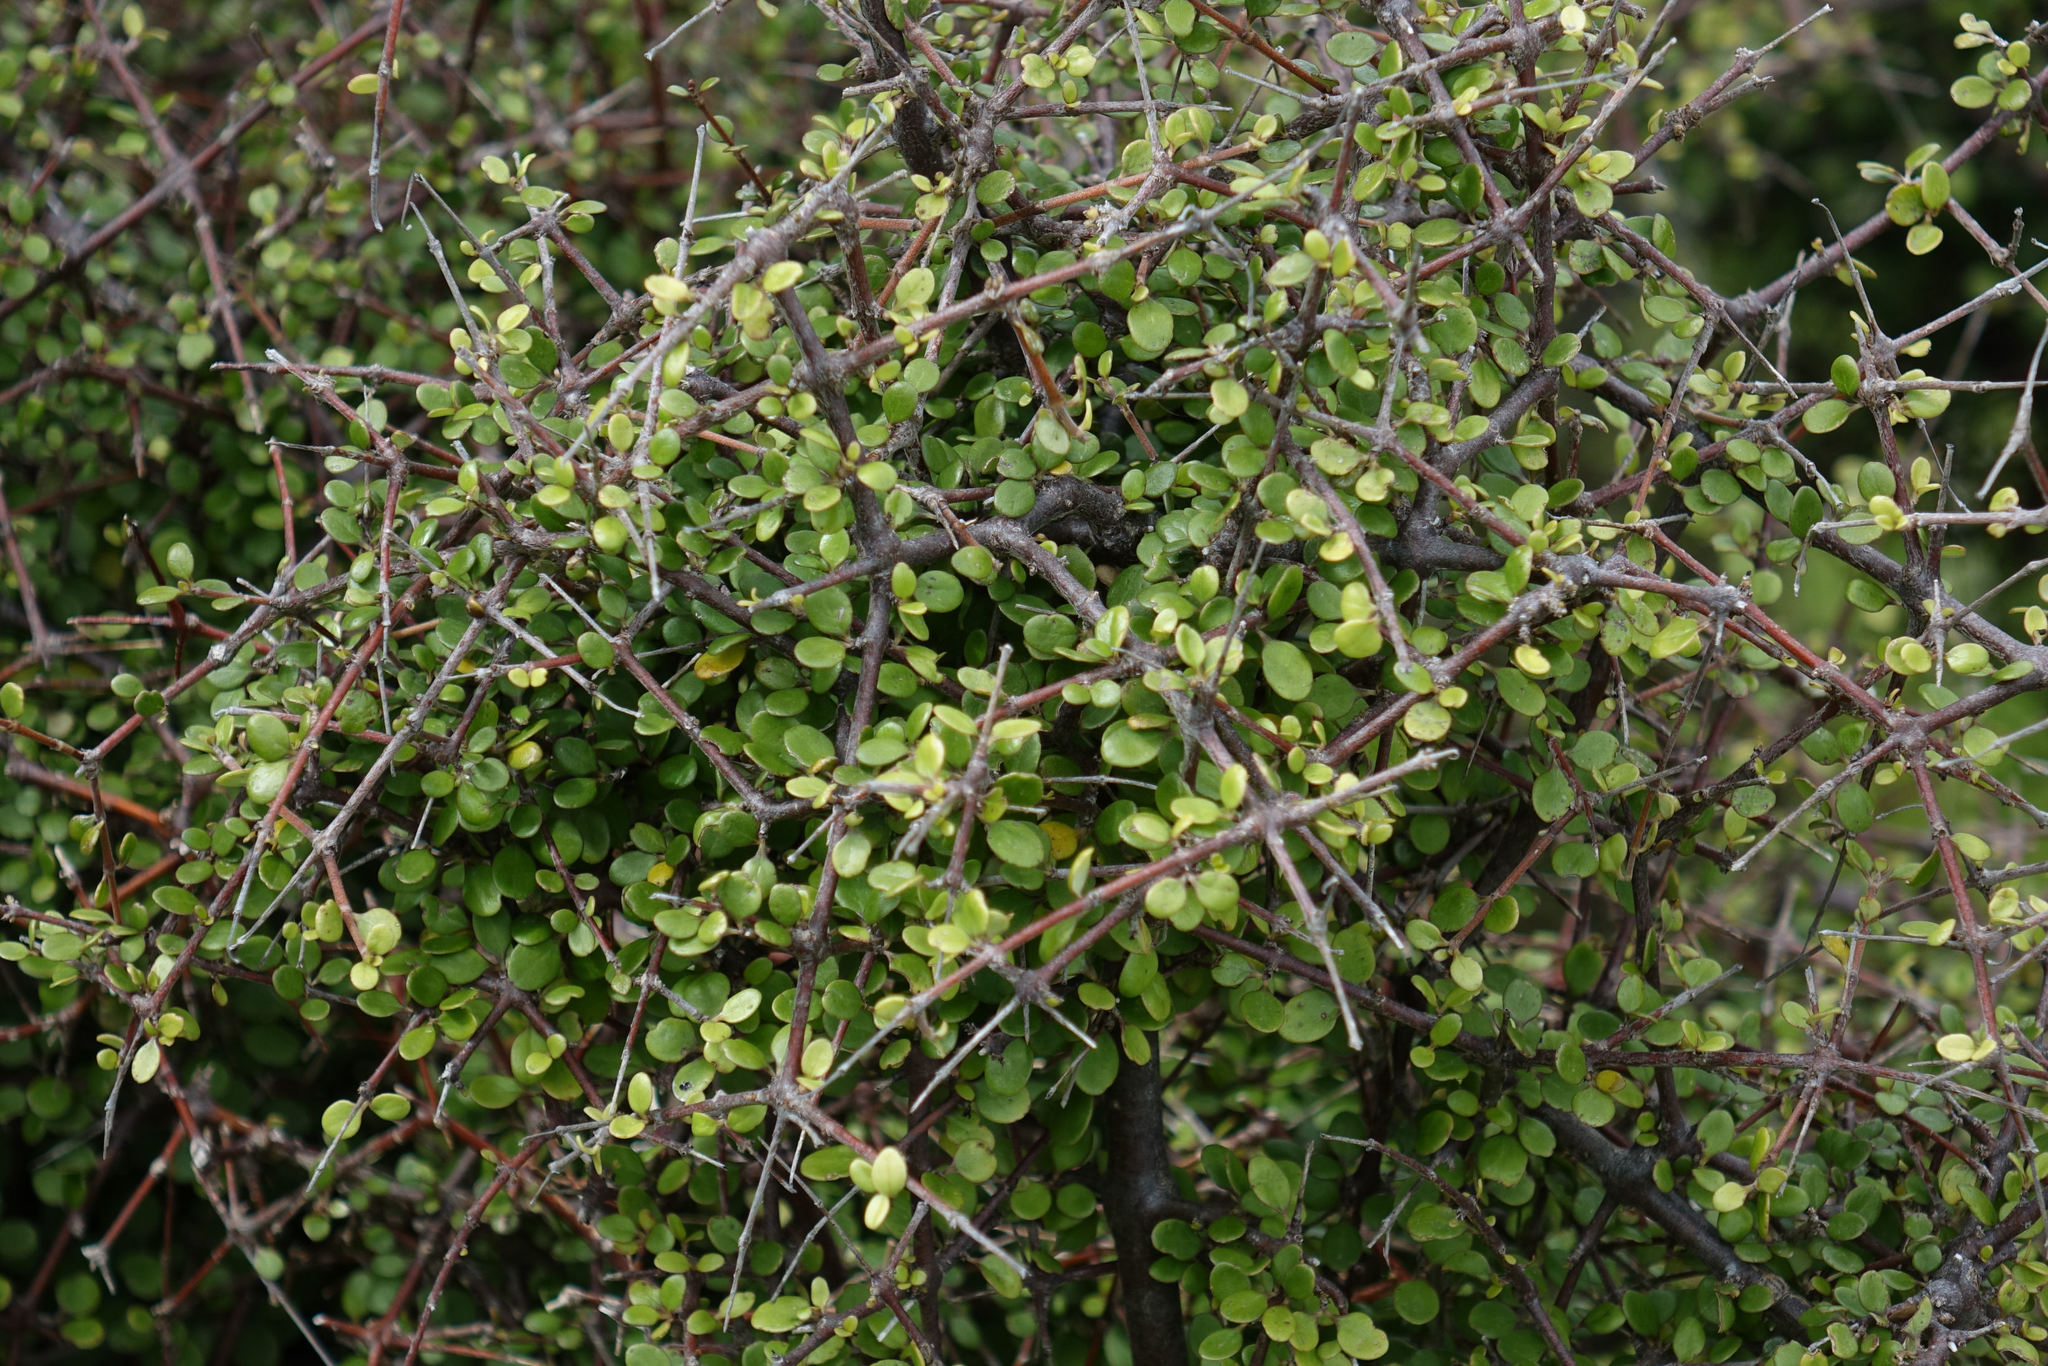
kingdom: Plantae
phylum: Tracheophyta
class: Magnoliopsida
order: Gentianales
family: Rubiaceae
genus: Coprosma
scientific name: Coprosma crassifolia
